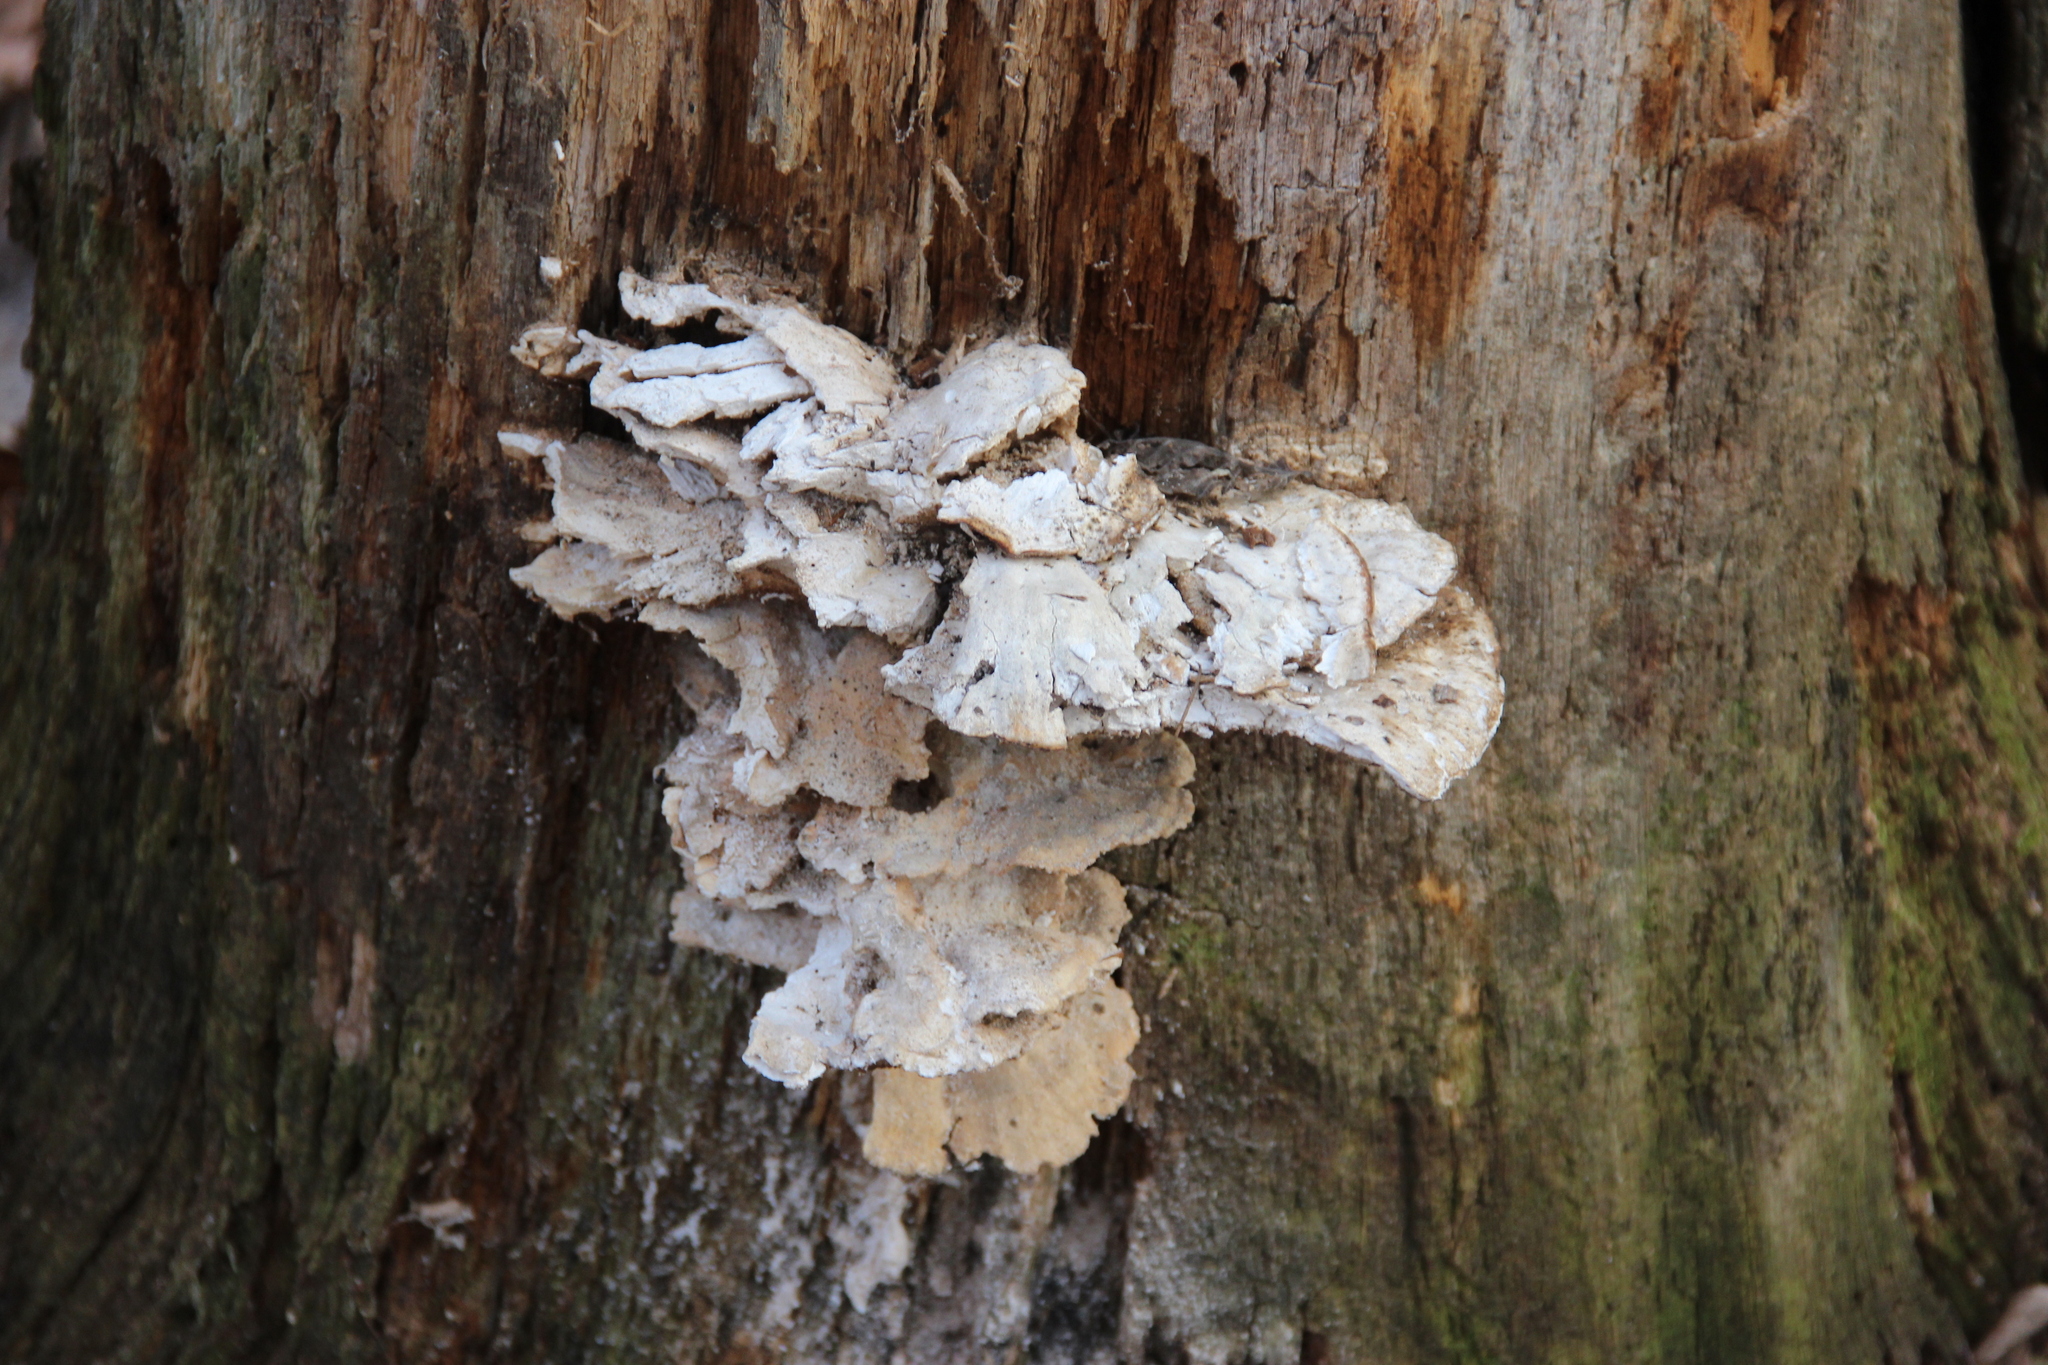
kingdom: Fungi
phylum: Basidiomycota
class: Agaricomycetes
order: Polyporales
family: Laetiporaceae
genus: Laetiporus
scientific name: Laetiporus sulphureus
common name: Chicken of the woods
